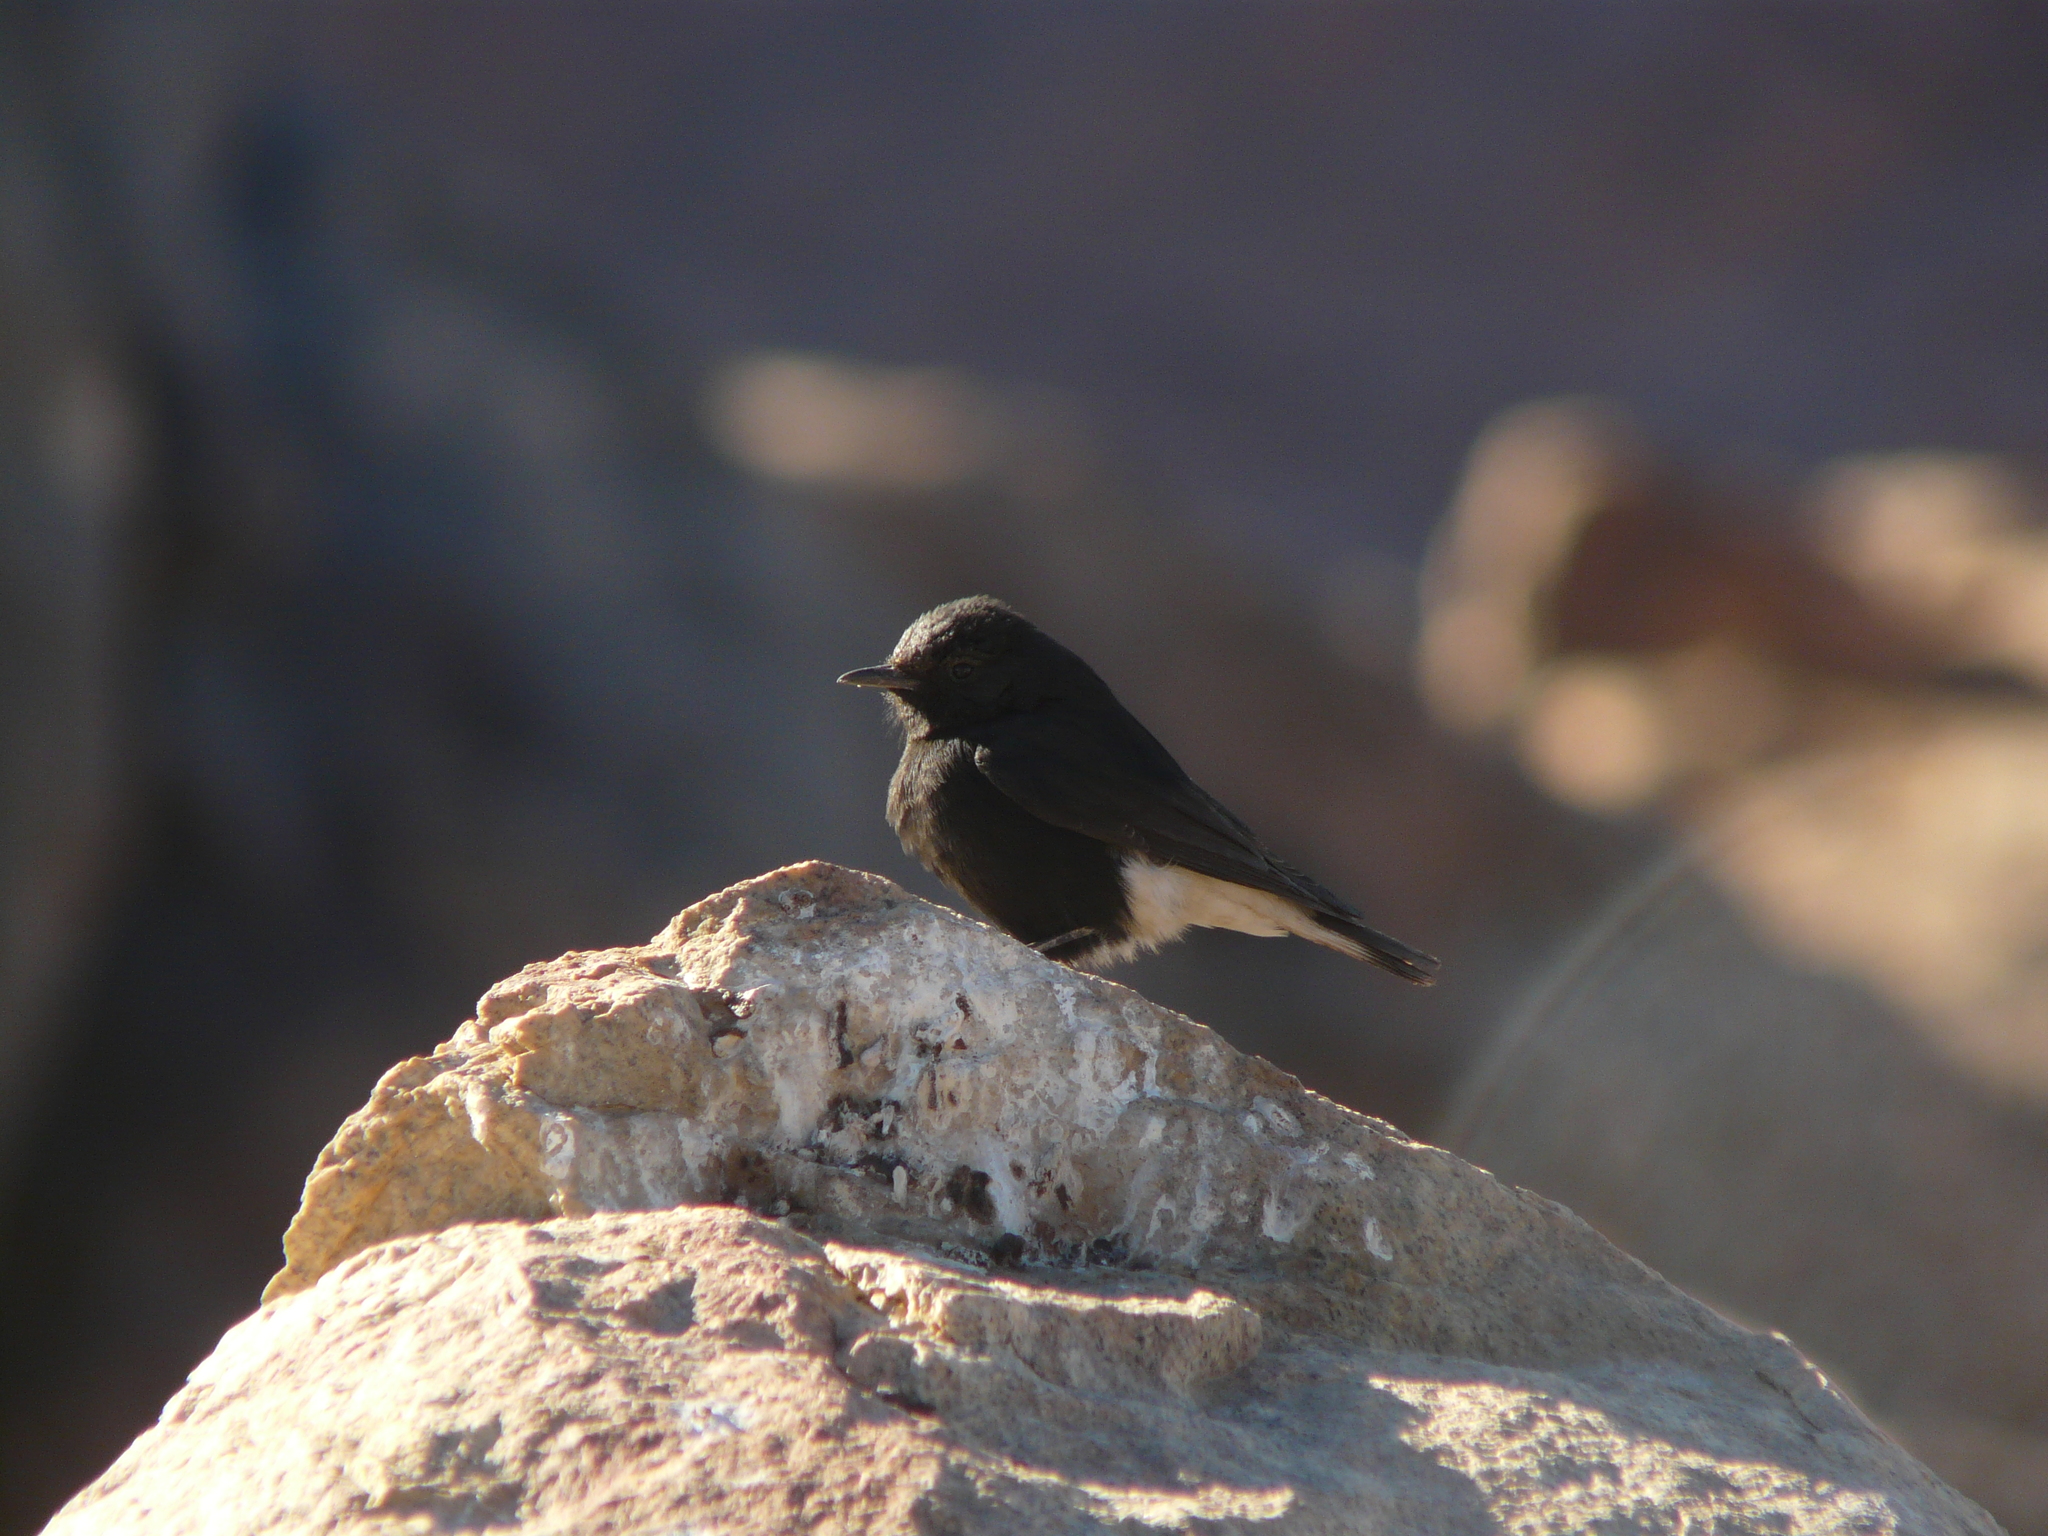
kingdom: Animalia
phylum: Chordata
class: Aves
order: Passeriformes
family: Muscicapidae
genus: Oenanthe
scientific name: Oenanthe leucopyga
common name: White-crowned wheatear
